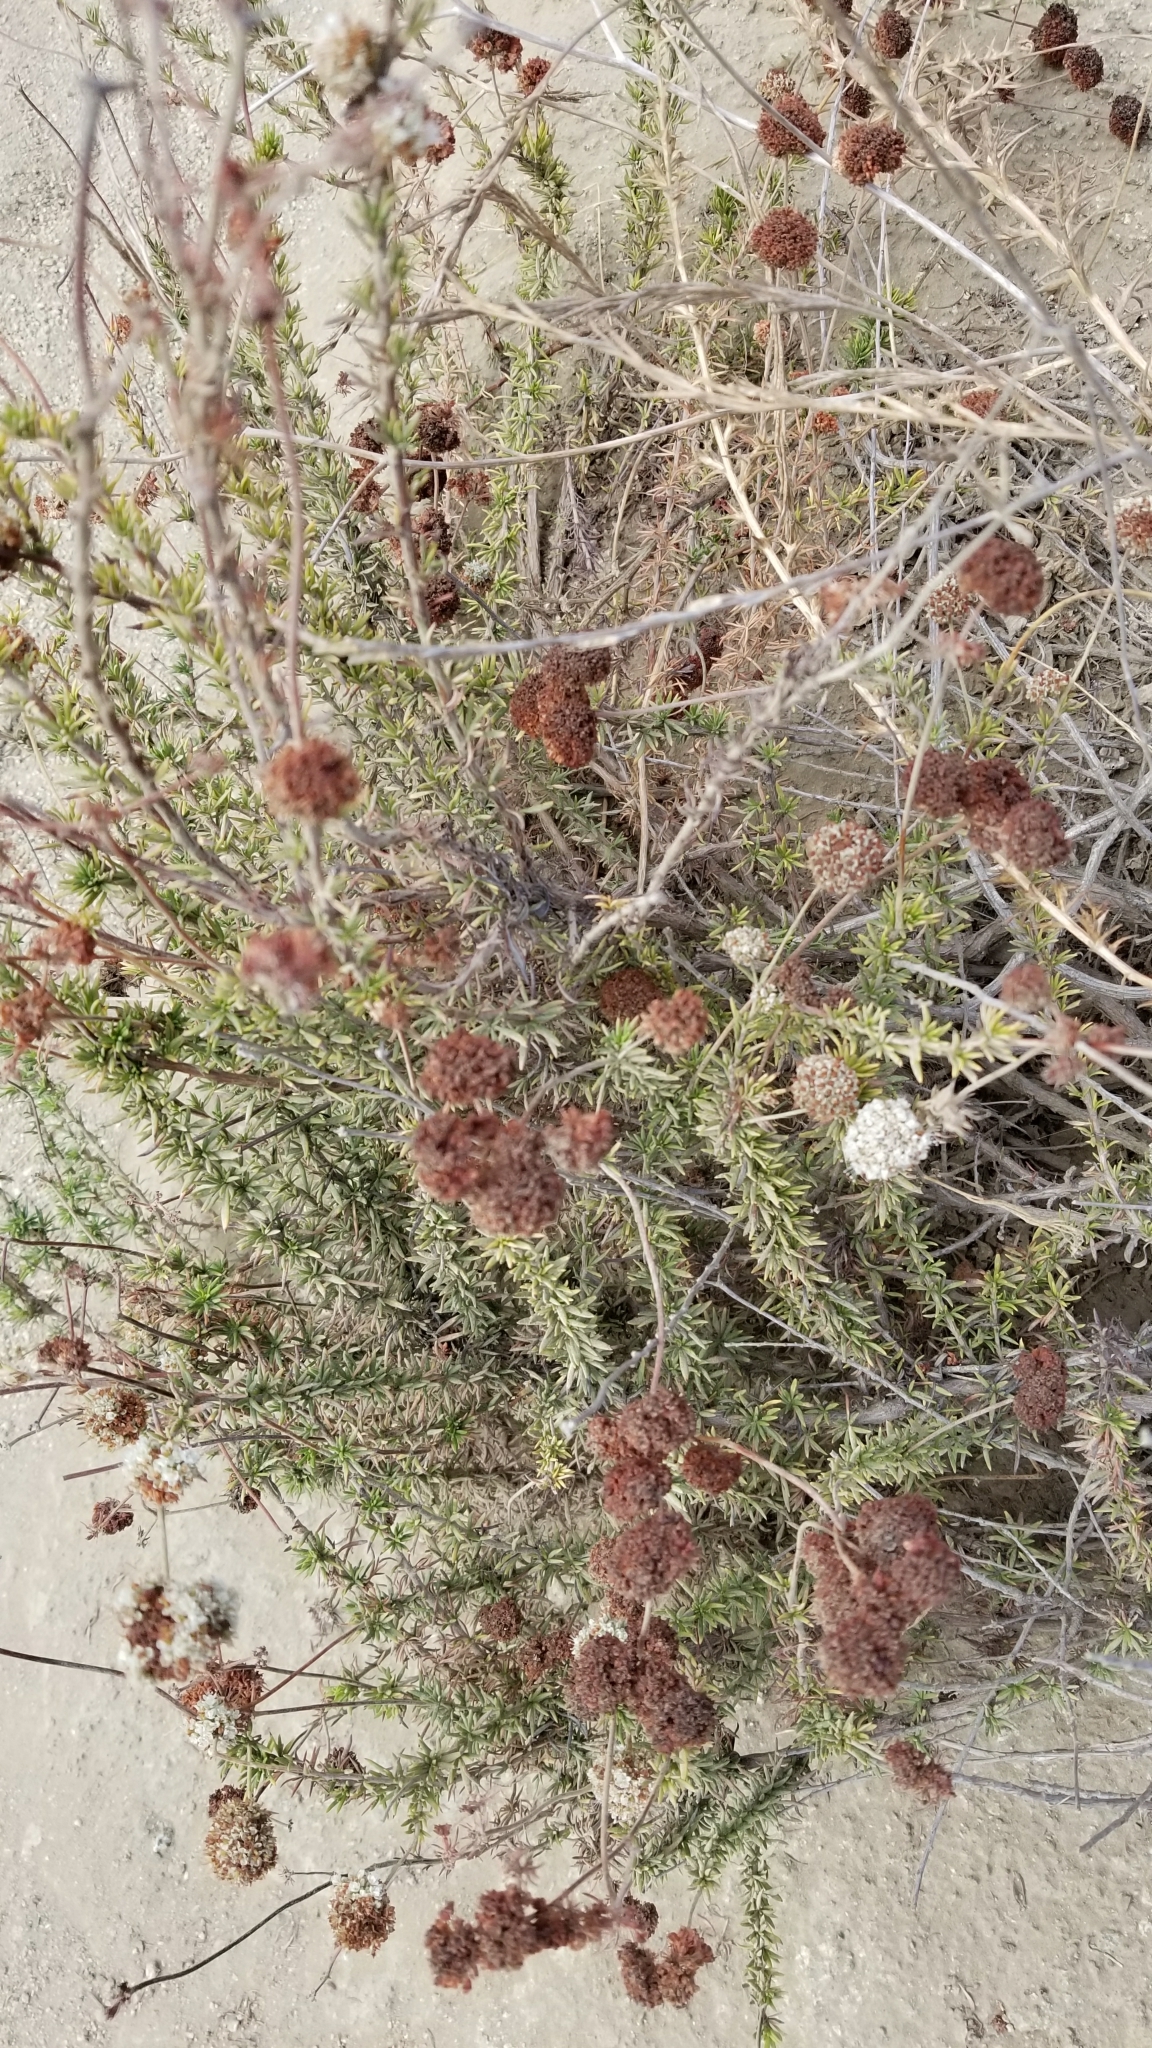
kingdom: Plantae
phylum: Tracheophyta
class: Magnoliopsida
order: Caryophyllales
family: Polygonaceae
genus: Eriogonum
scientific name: Eriogonum fasciculatum
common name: California wild buckwheat
